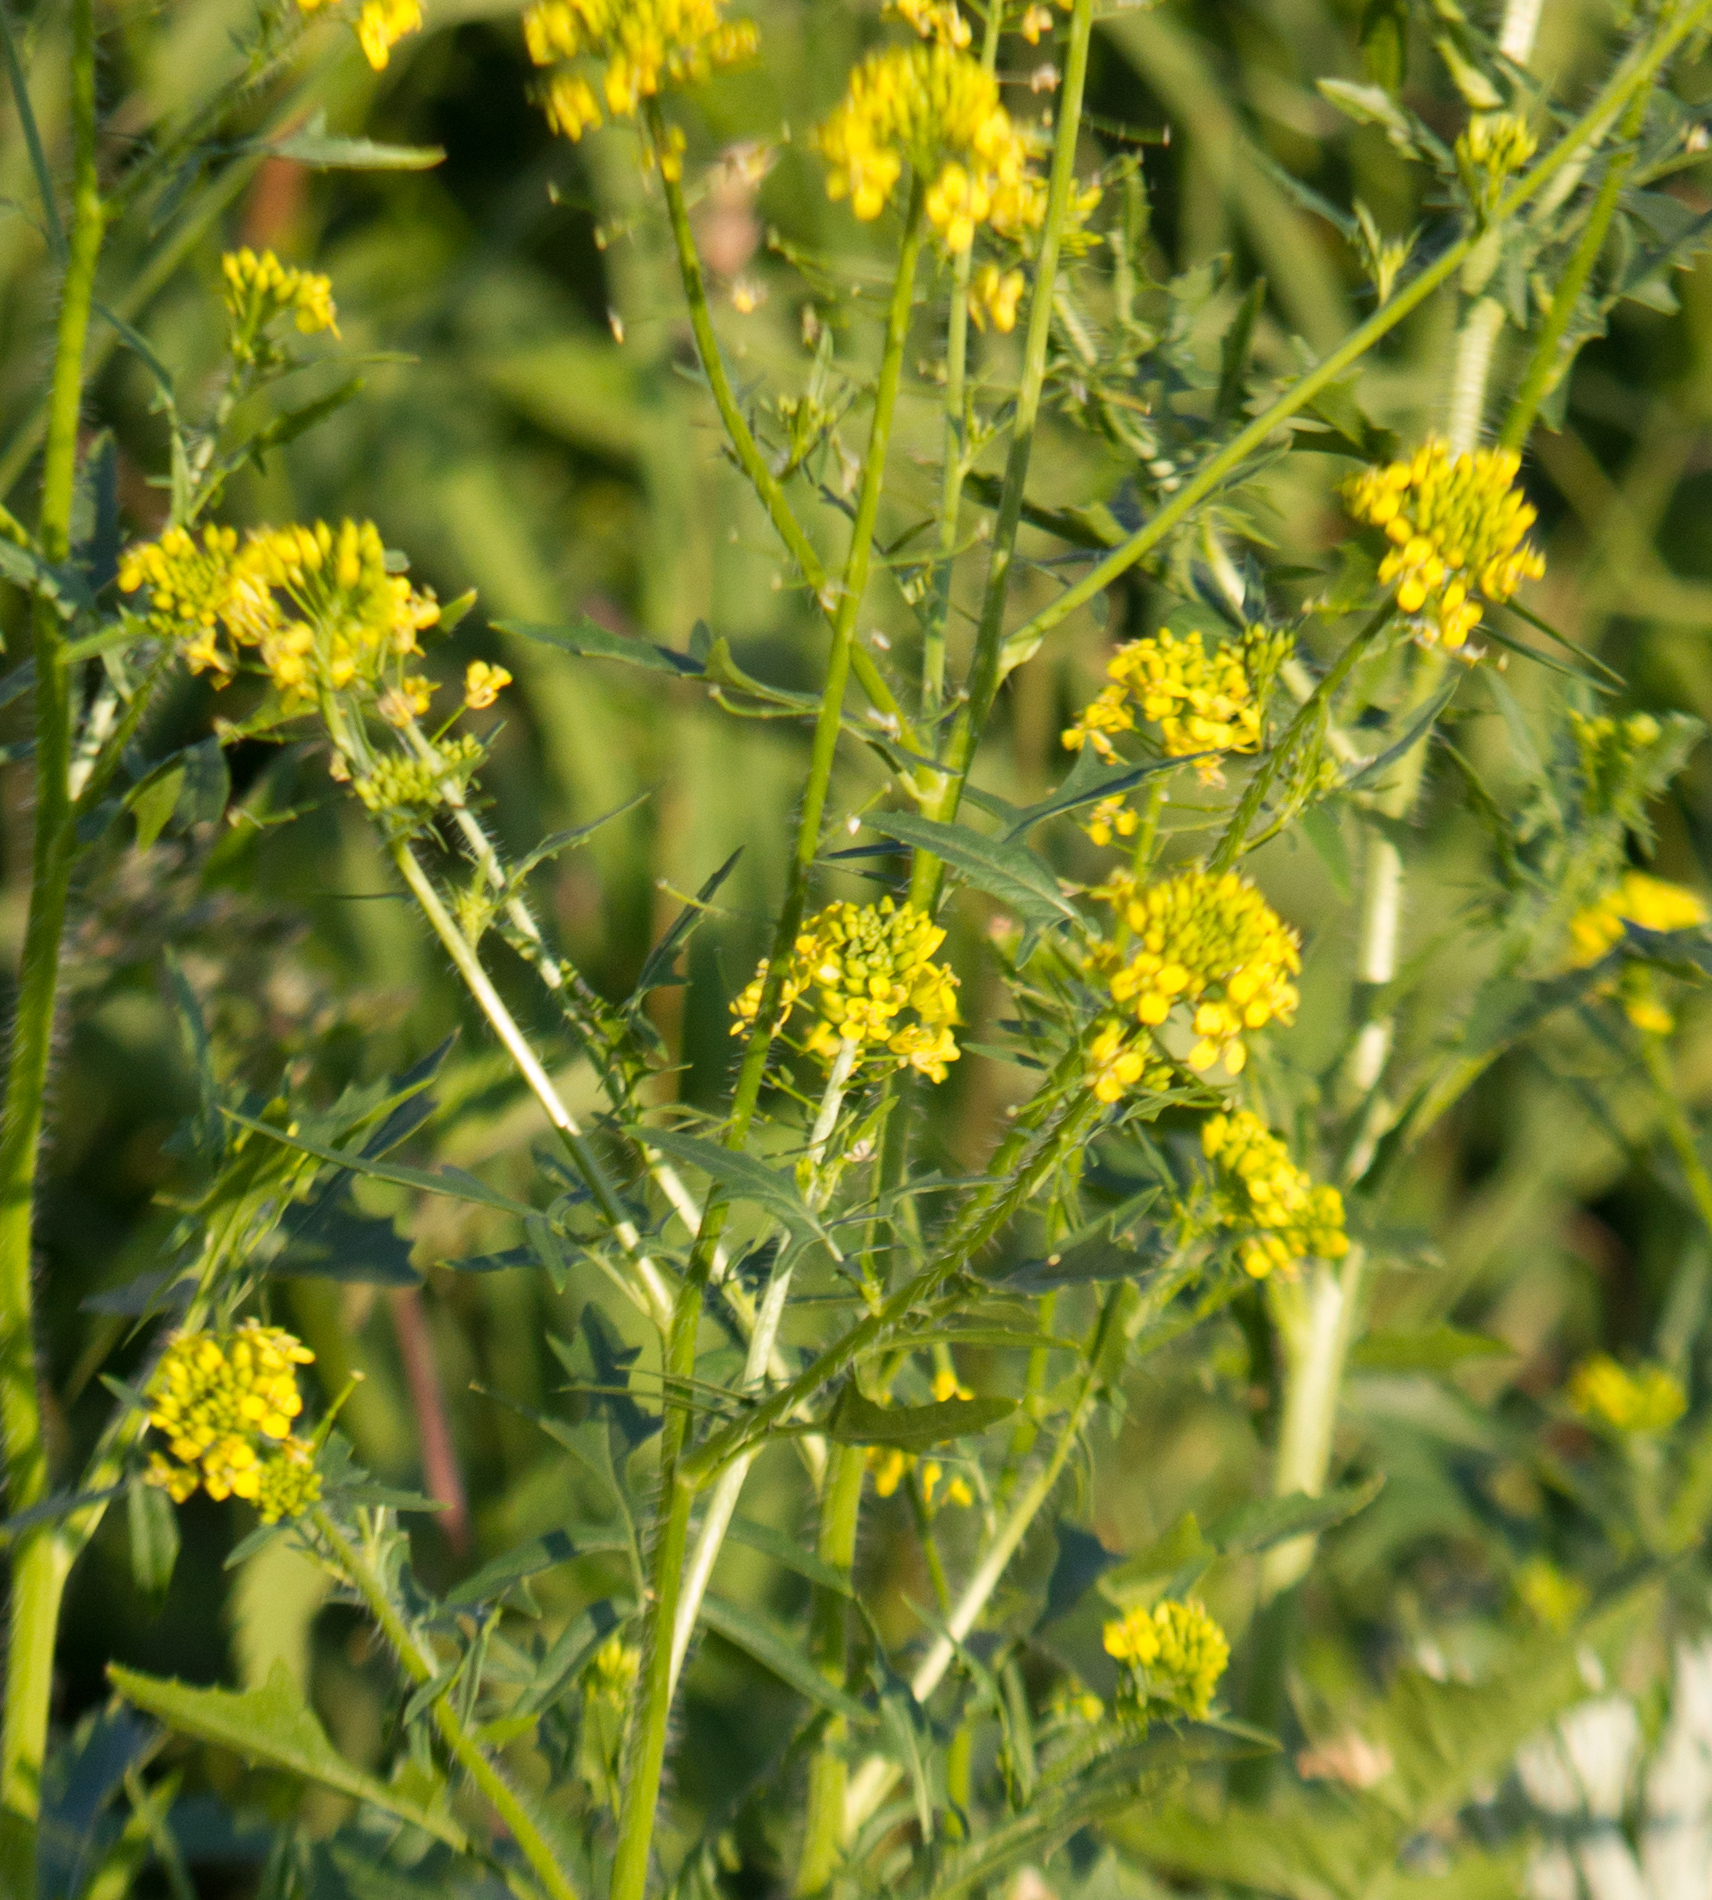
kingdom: Plantae
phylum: Tracheophyta
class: Magnoliopsida
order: Brassicales
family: Brassicaceae
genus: Sisymbrium
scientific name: Sisymbrium loeselii
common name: False london-rocket
